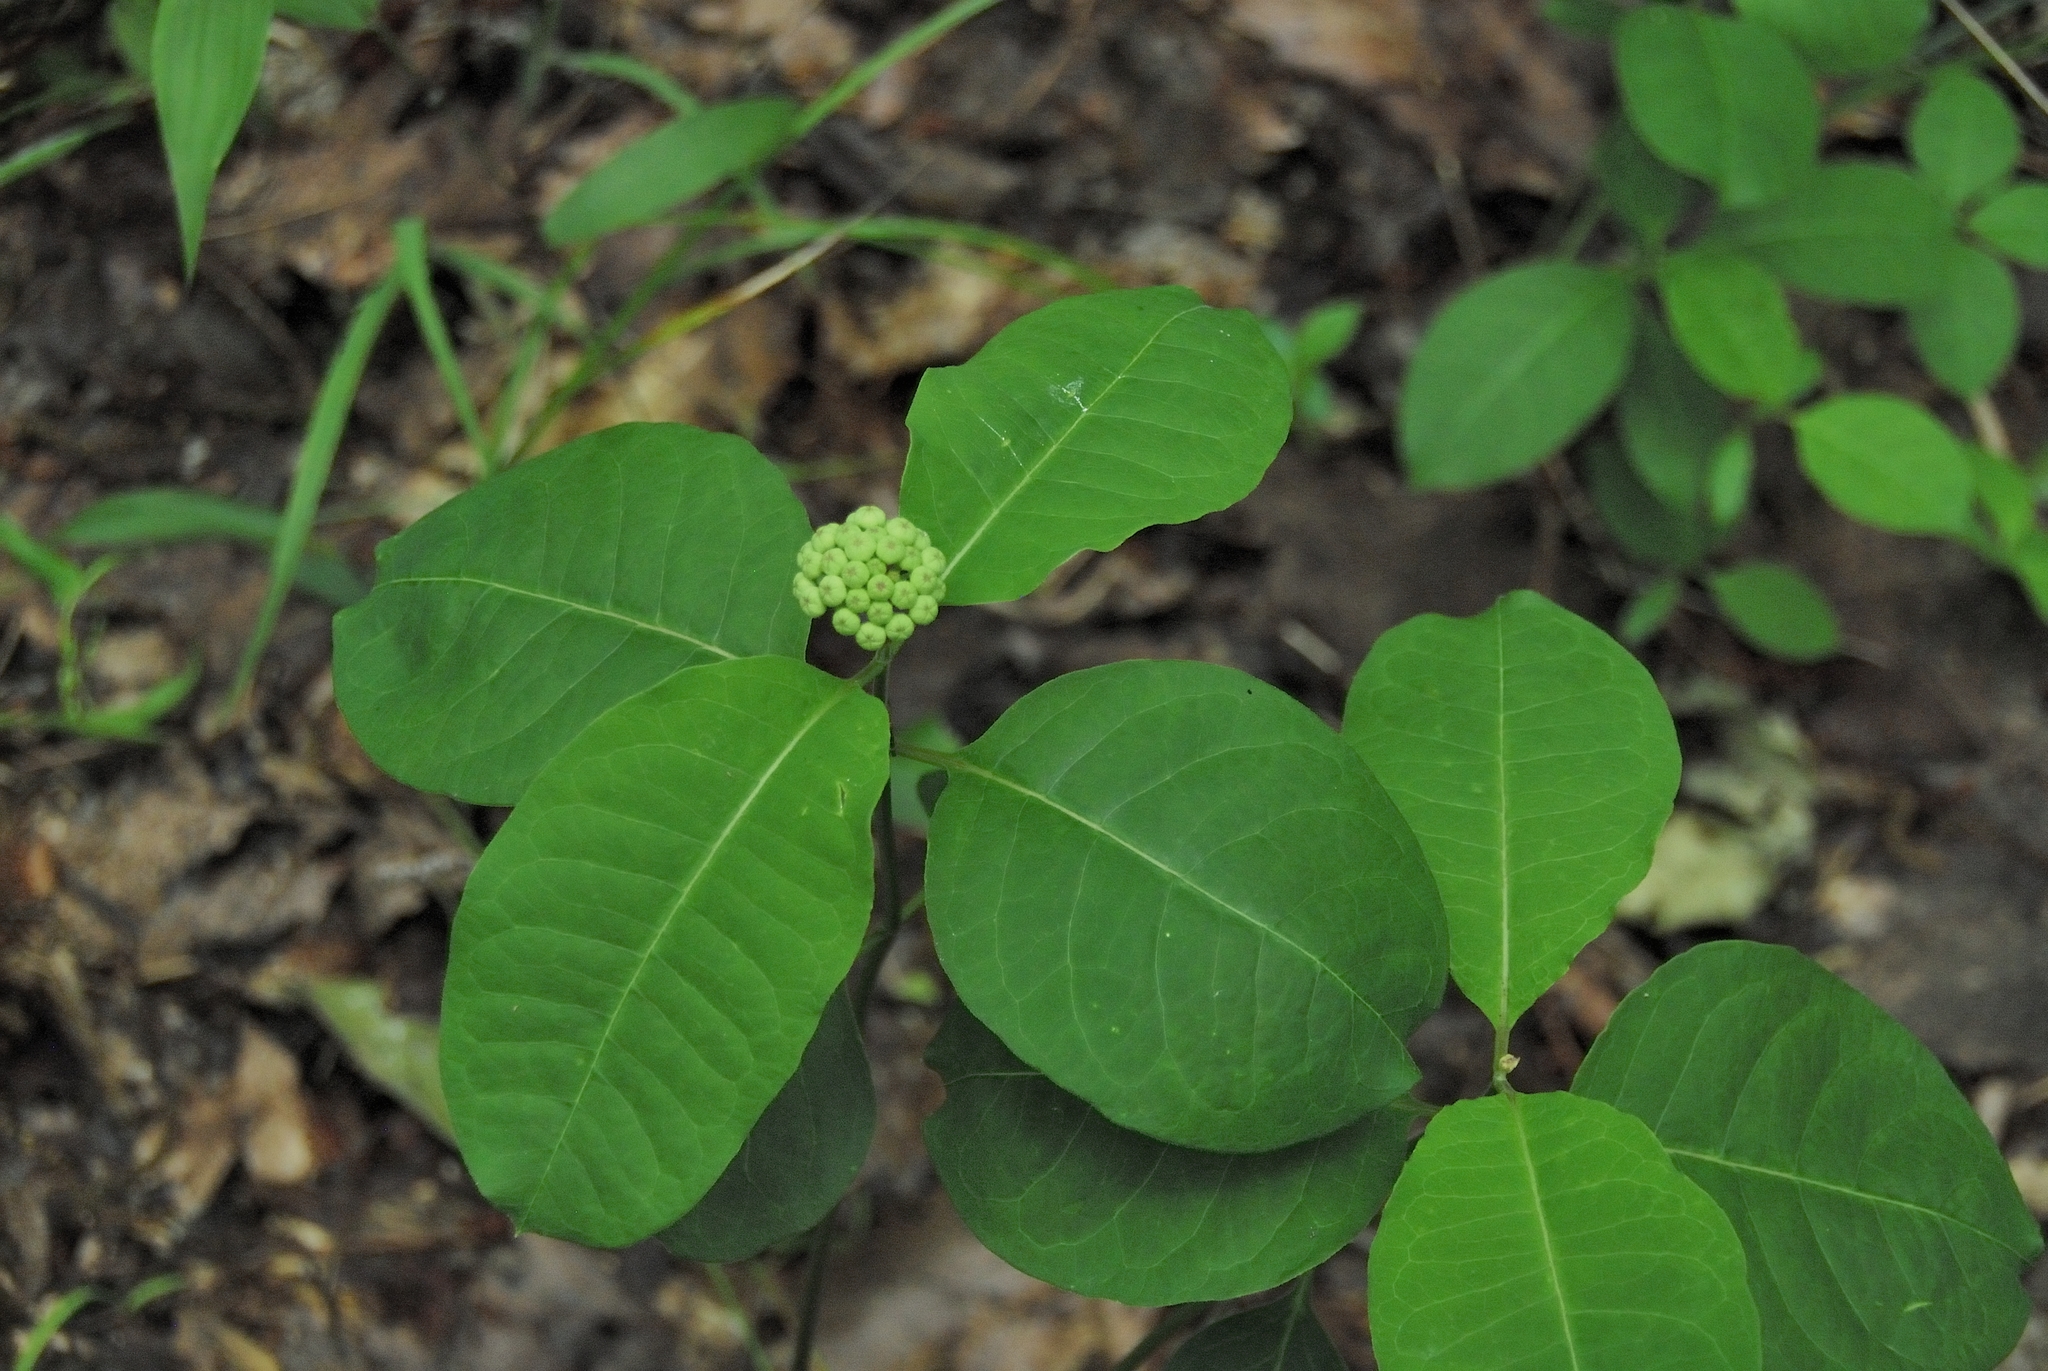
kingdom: Plantae
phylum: Tracheophyta
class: Magnoliopsida
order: Gentianales
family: Apocynaceae
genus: Asclepias
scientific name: Asclepias variegata
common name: Variegated milkweed
